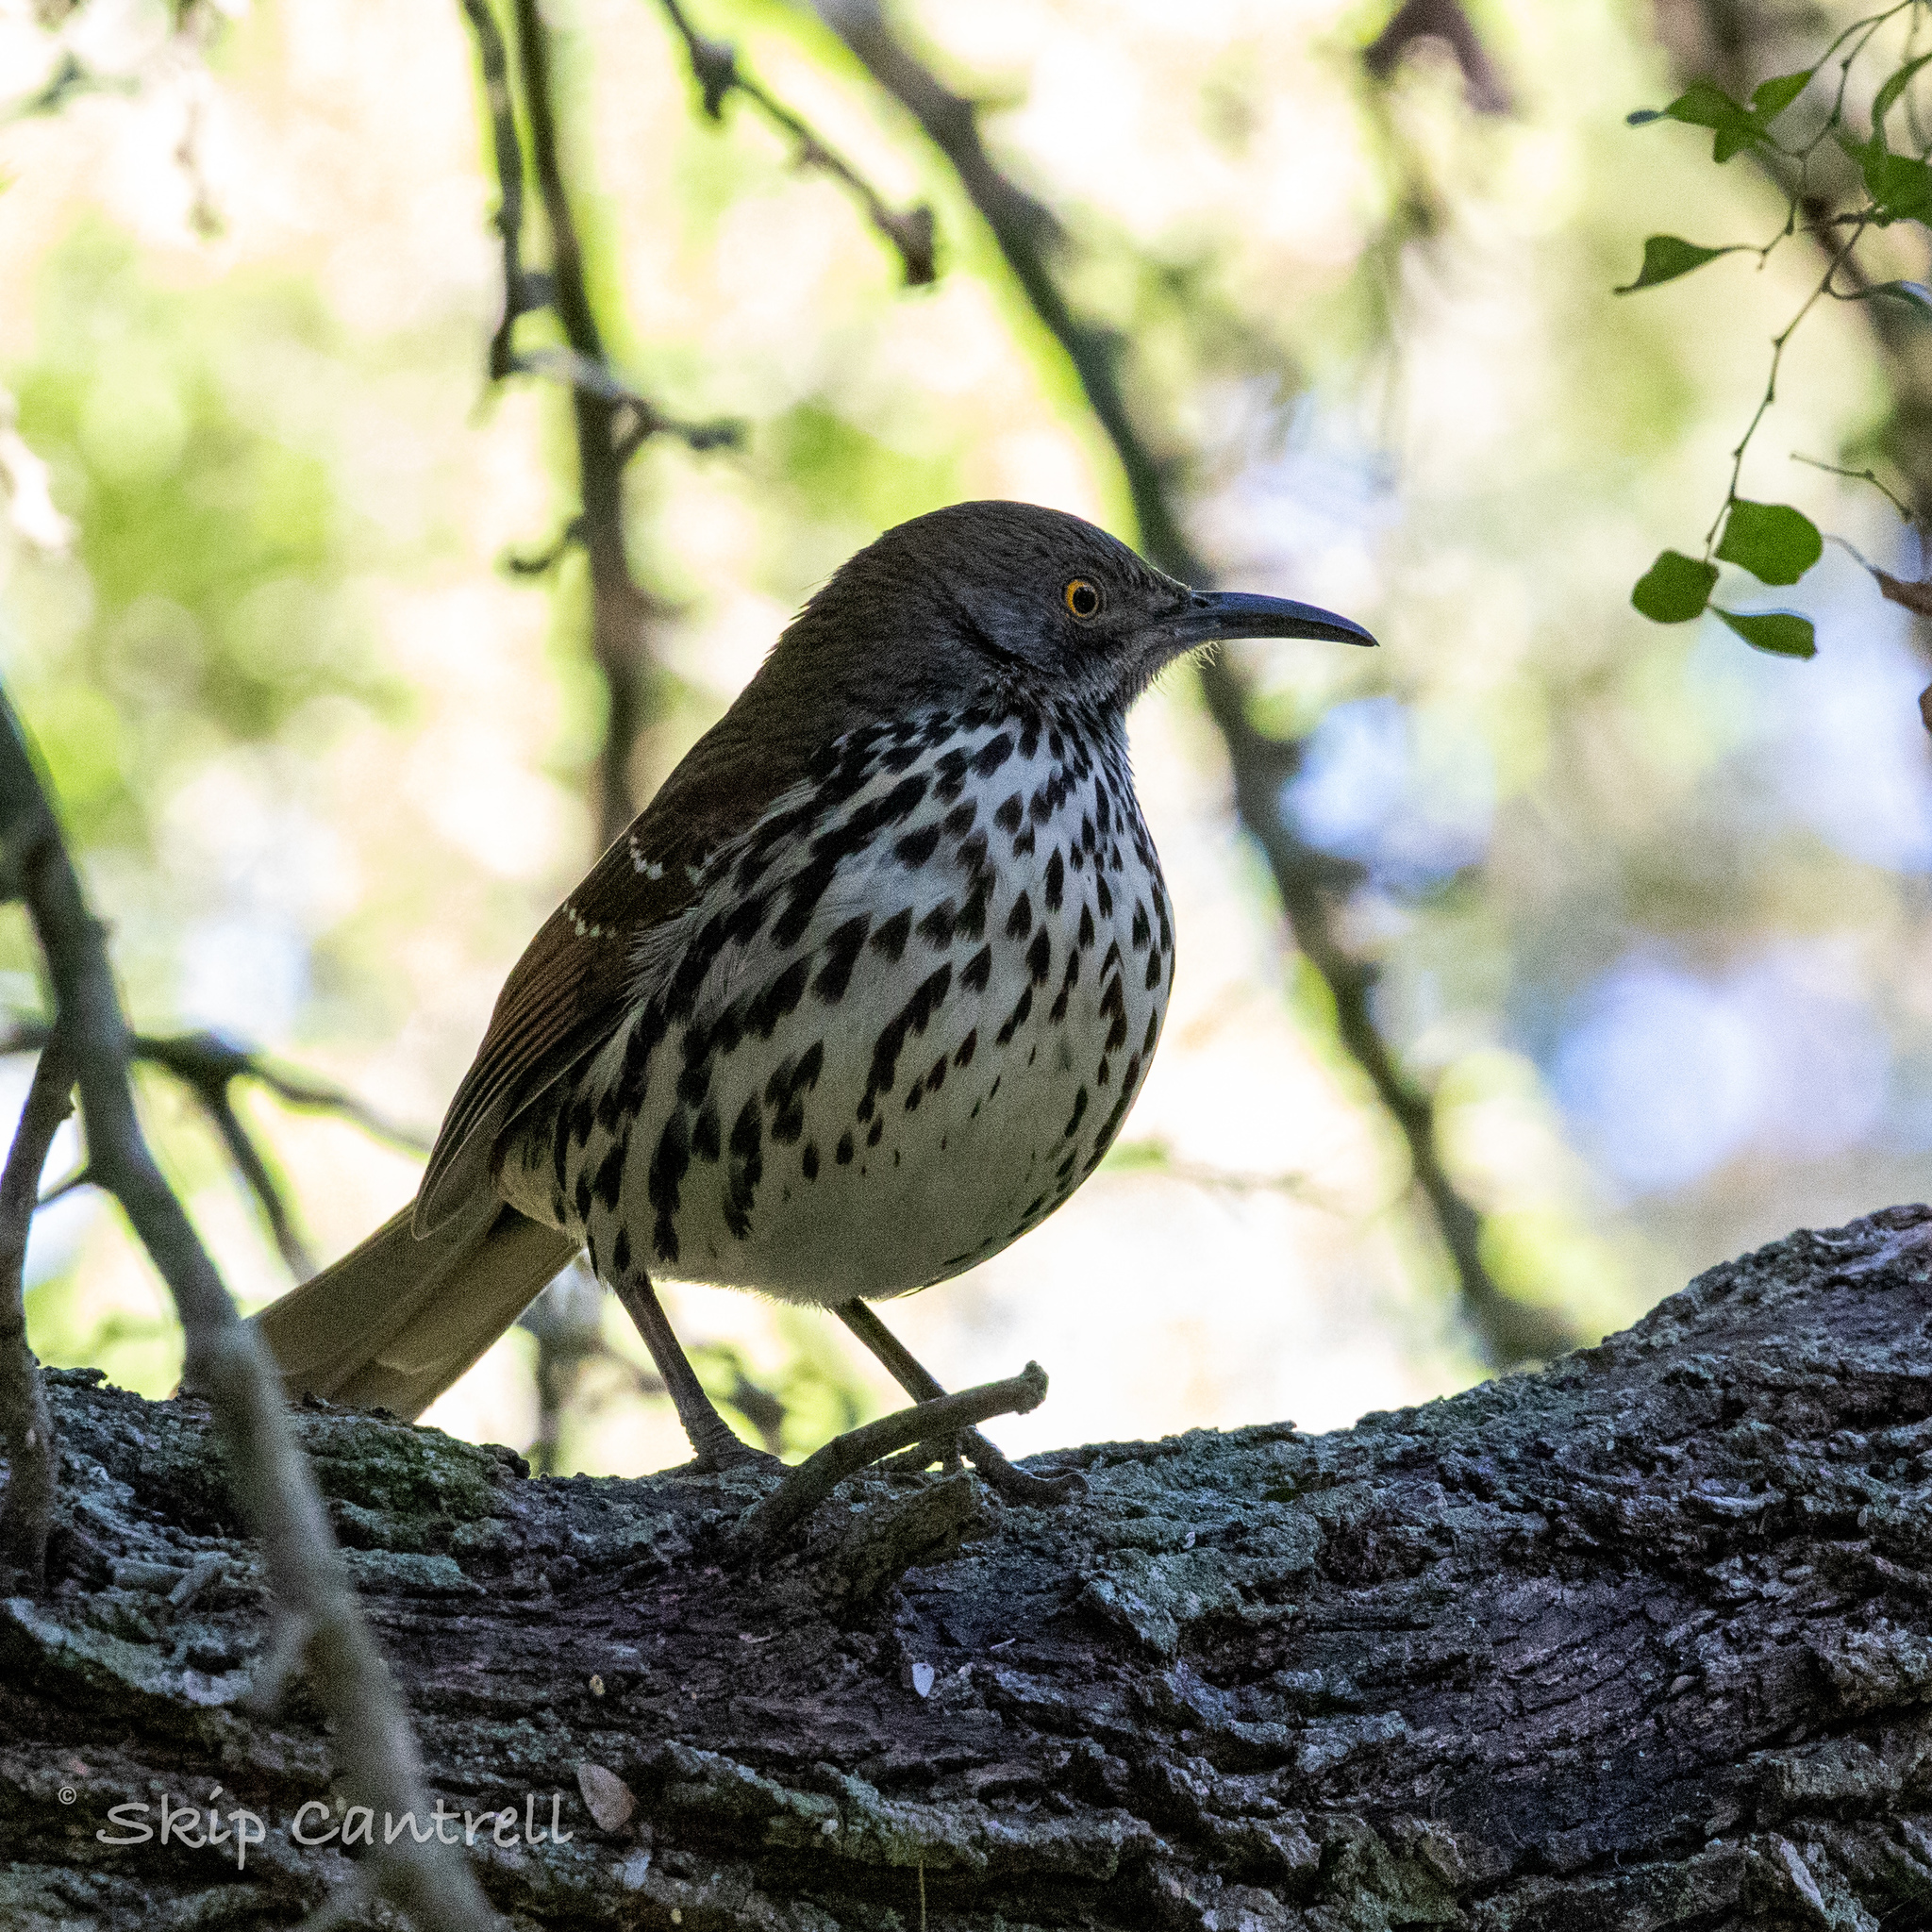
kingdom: Animalia
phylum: Chordata
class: Aves
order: Passeriformes
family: Mimidae
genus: Toxostoma
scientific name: Toxostoma longirostre
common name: Long-billed thrasher
